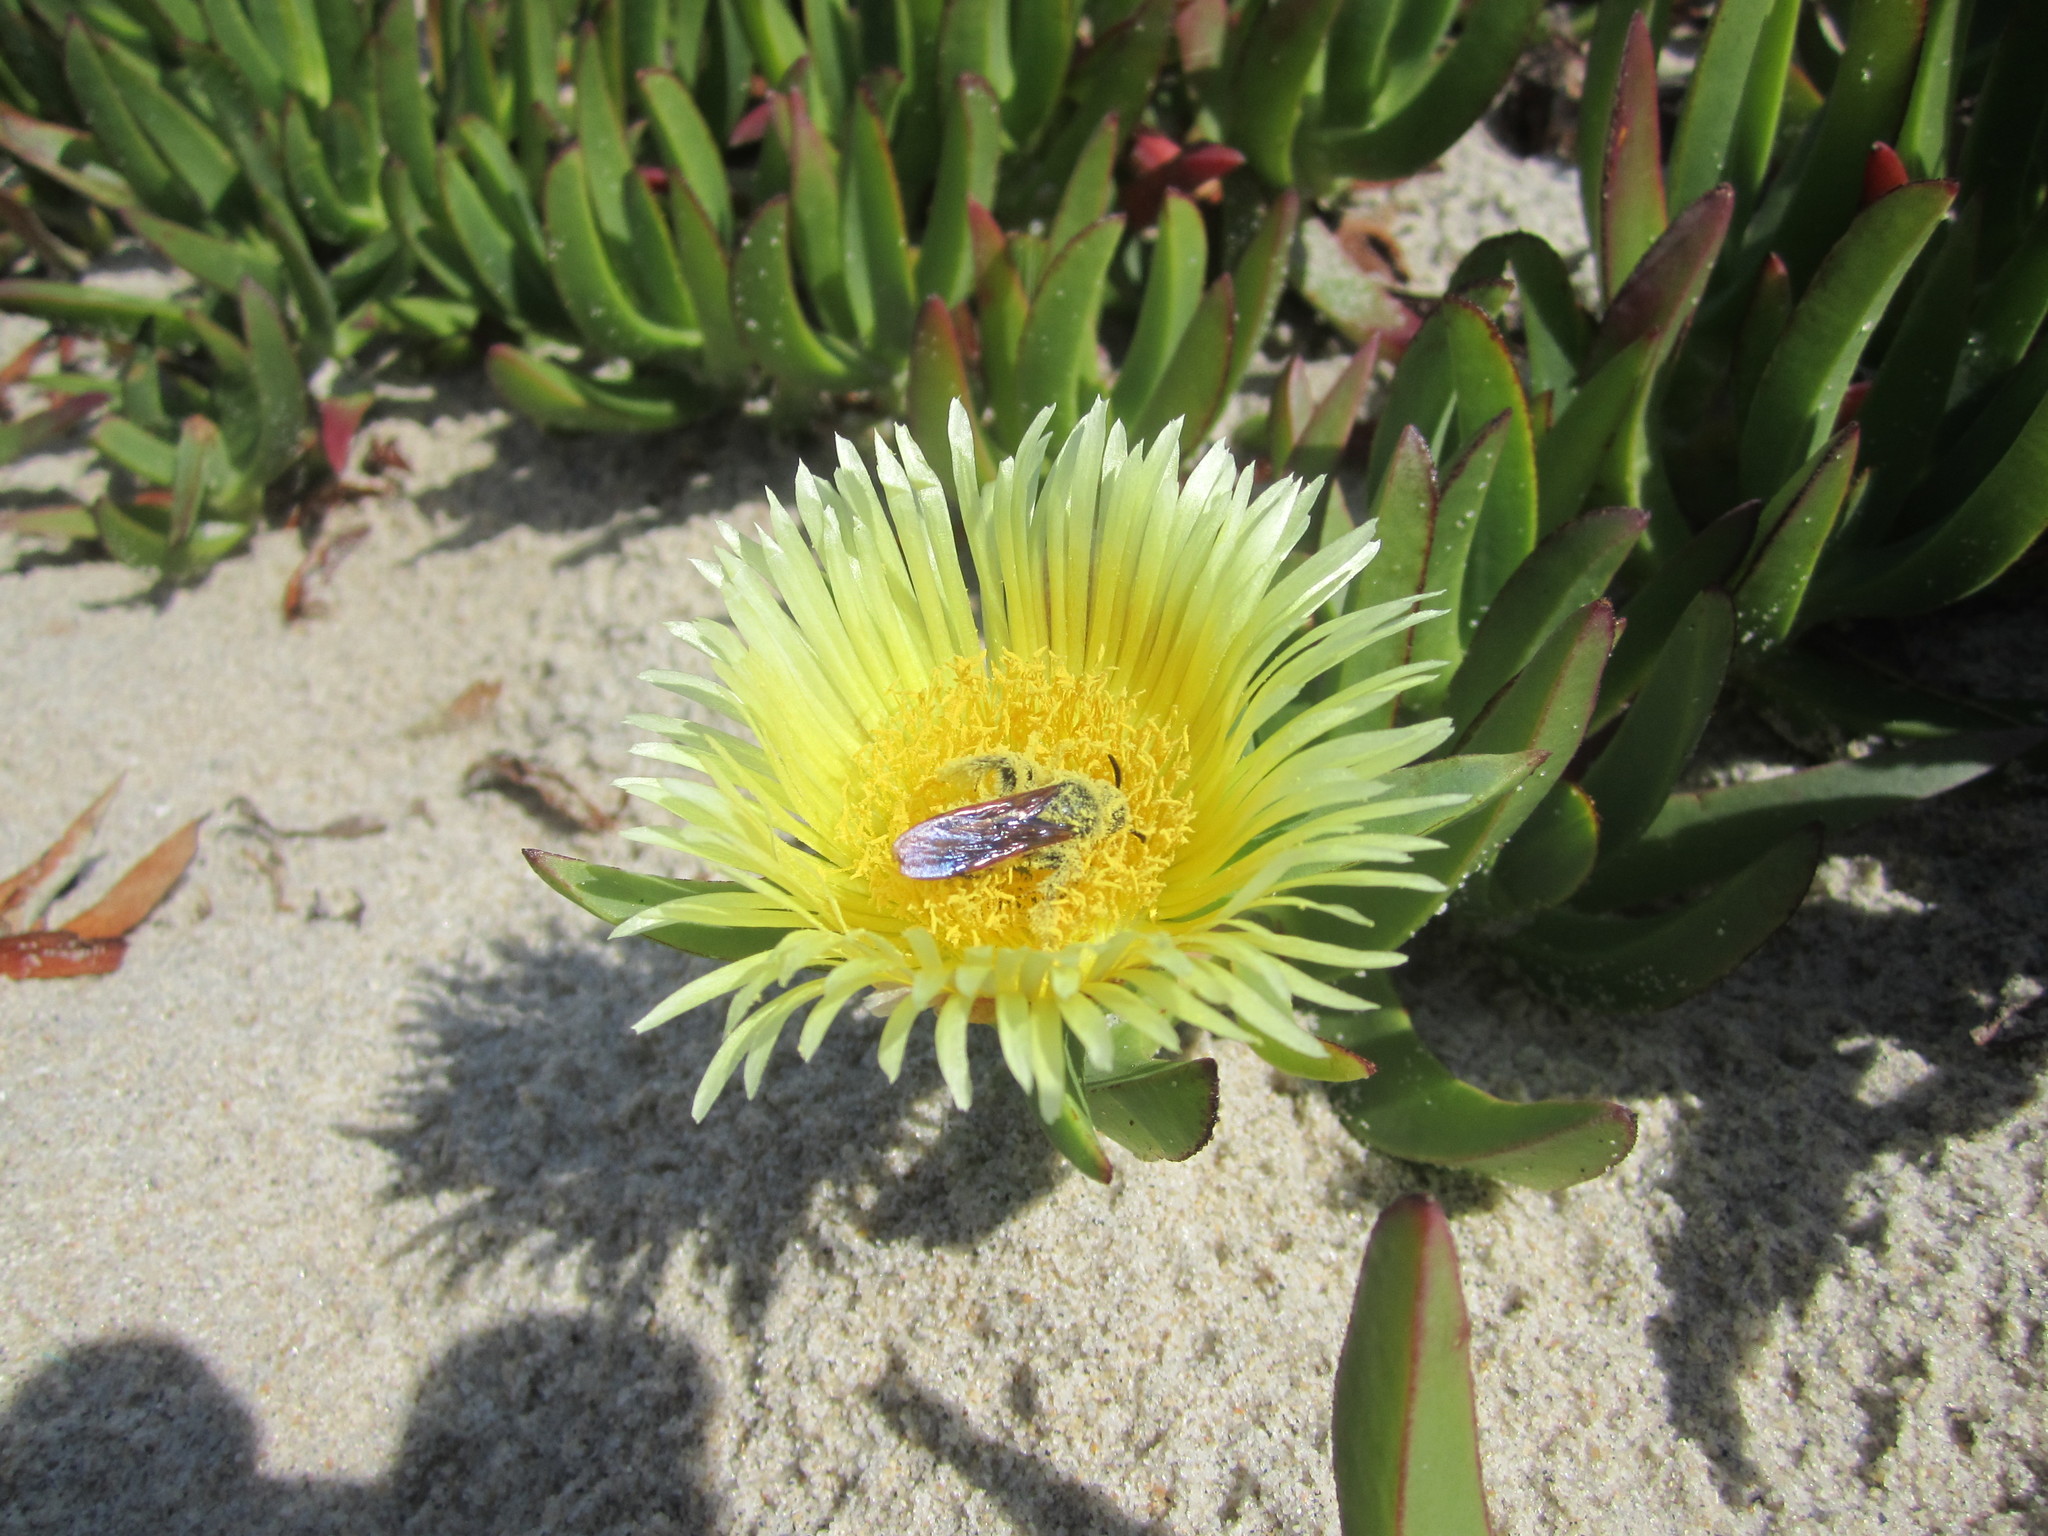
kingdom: Plantae
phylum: Tracheophyta
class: Magnoliopsida
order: Caryophyllales
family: Aizoaceae
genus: Carpobrotus
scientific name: Carpobrotus edulis
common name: Hottentot-fig
